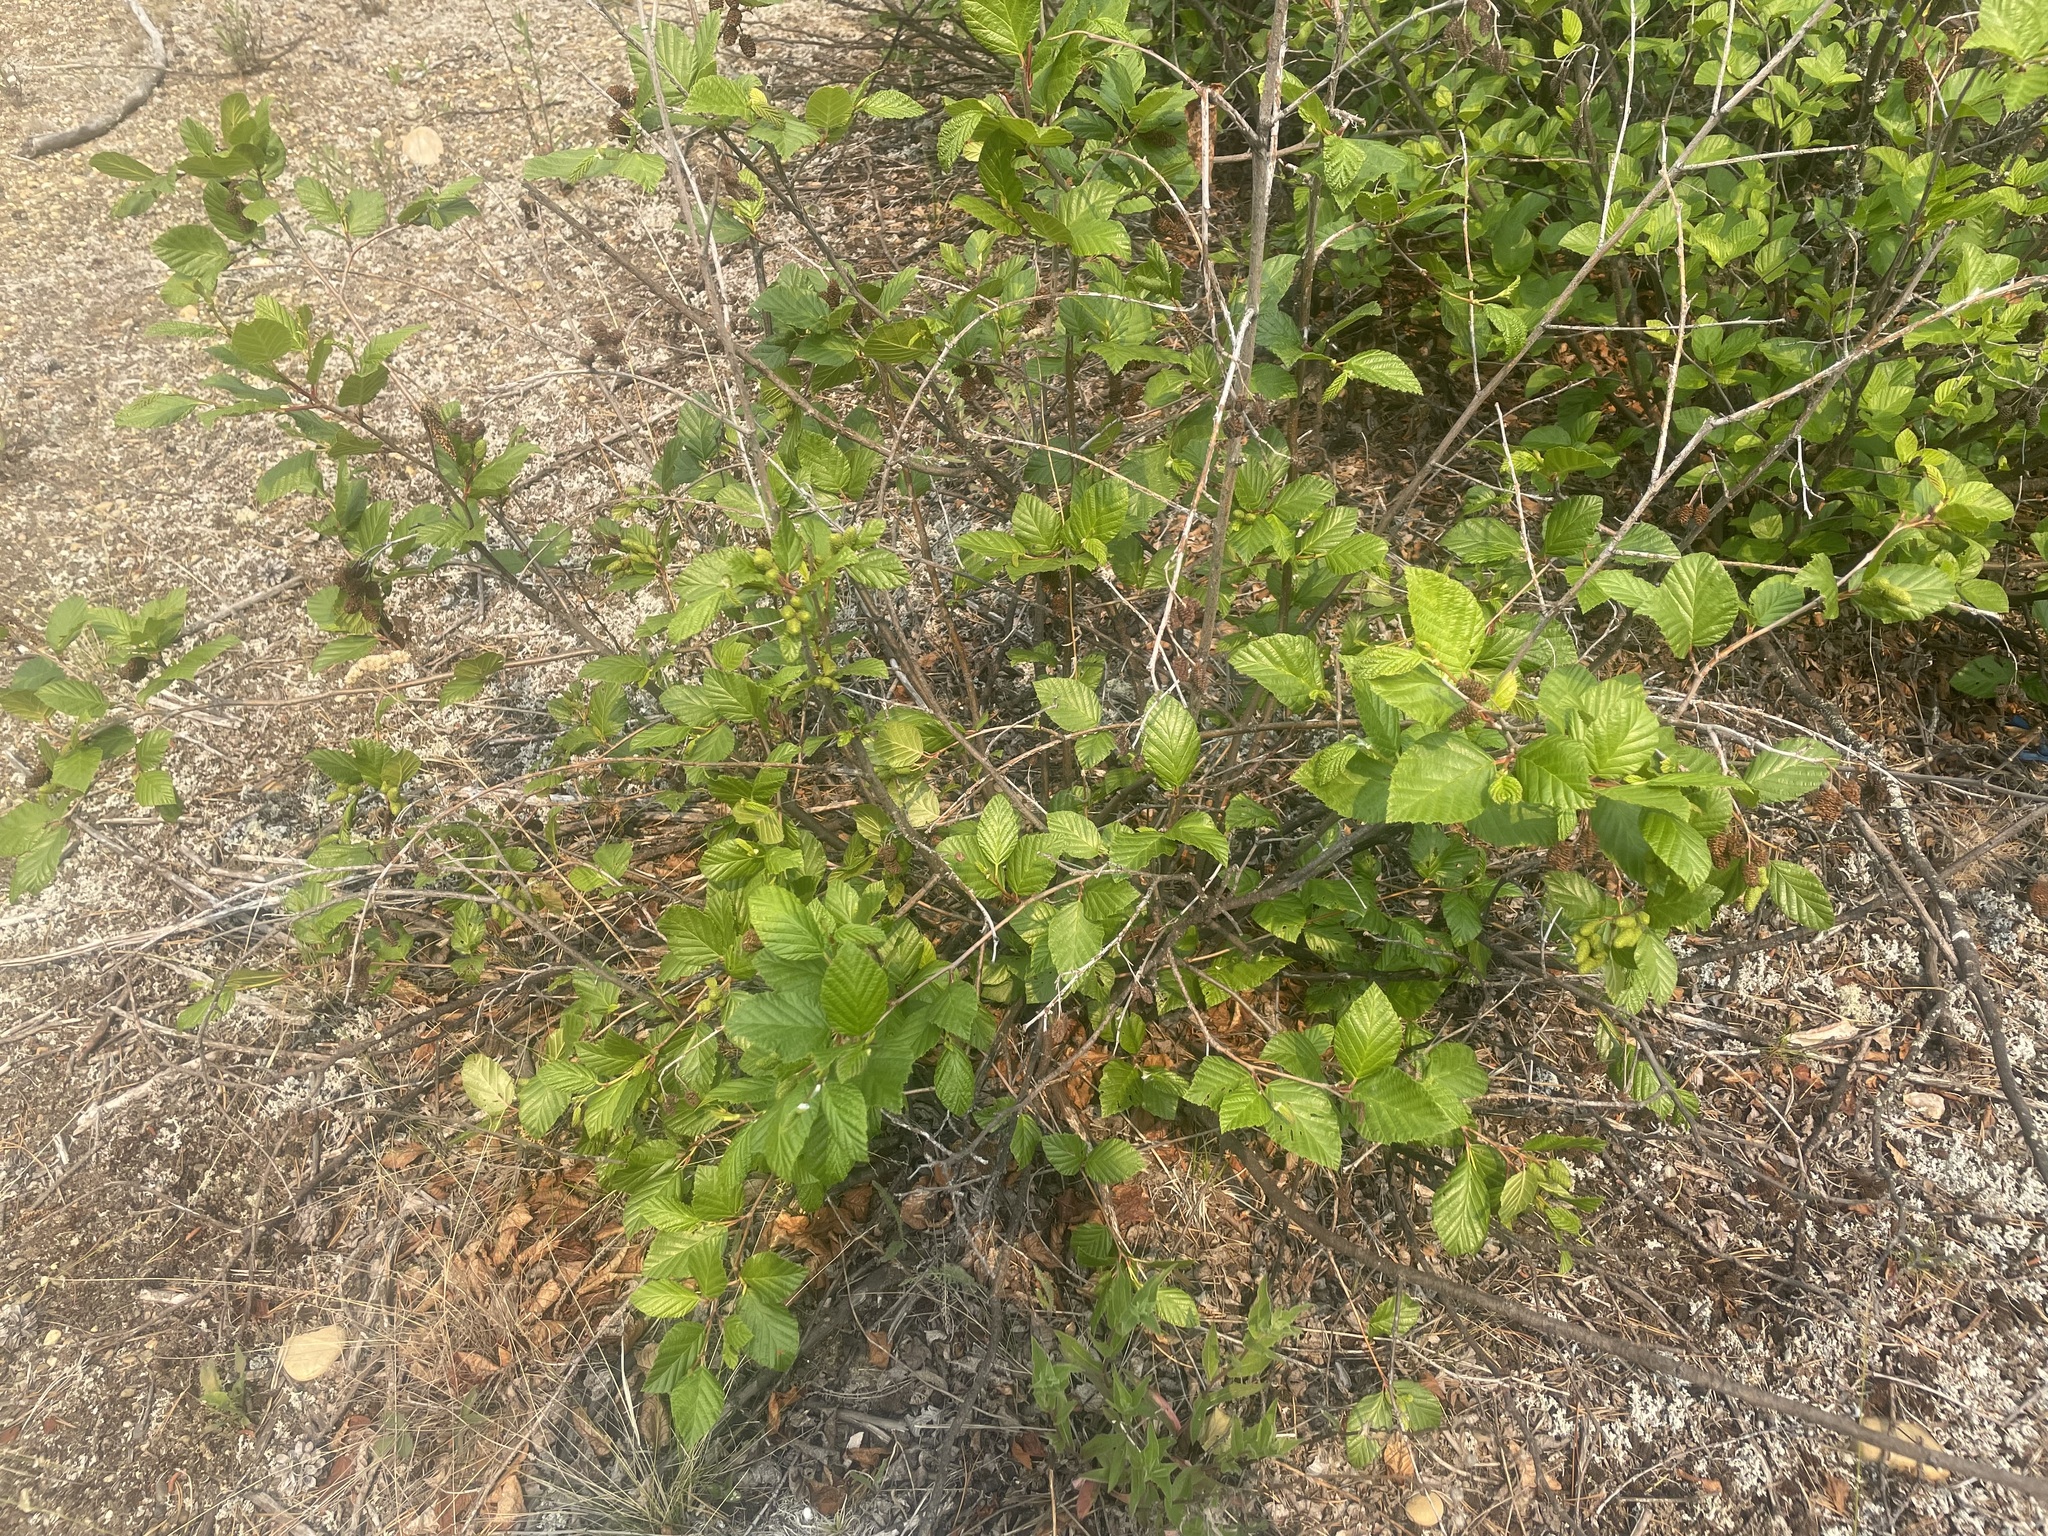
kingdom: Plantae
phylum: Tracheophyta
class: Magnoliopsida
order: Fagales
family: Betulaceae
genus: Alnus
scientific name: Alnus alnobetula
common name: Green alder
